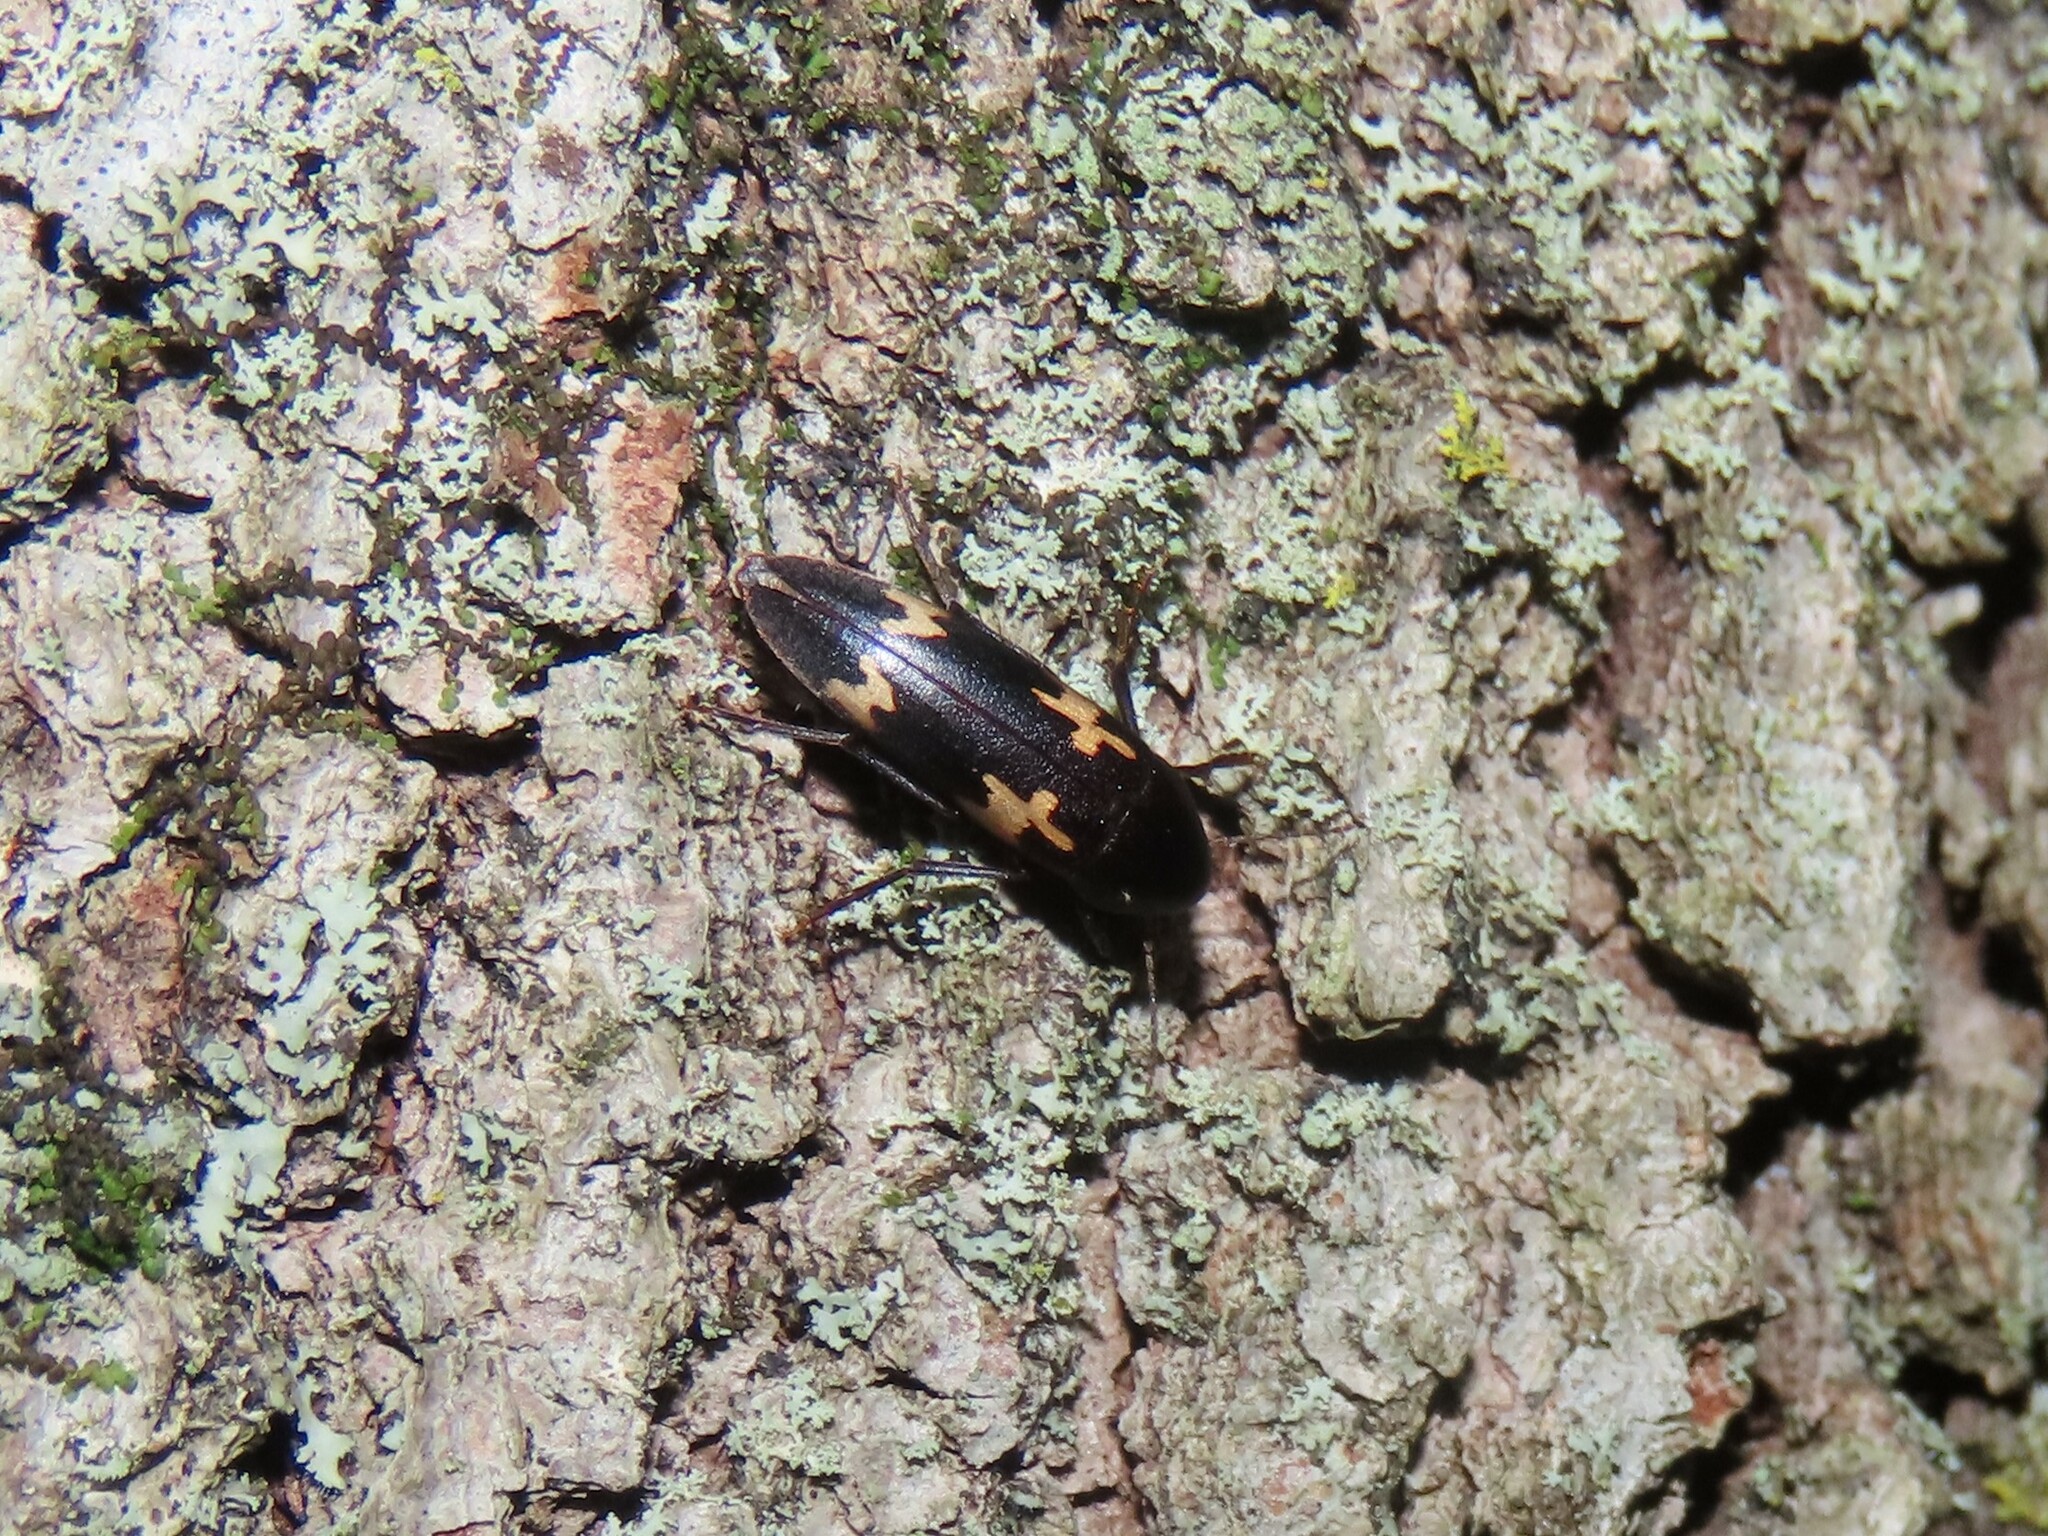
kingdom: Animalia
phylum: Arthropoda
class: Insecta
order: Coleoptera
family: Melandryidae
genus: Dircaea
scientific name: Dircaea liturata
